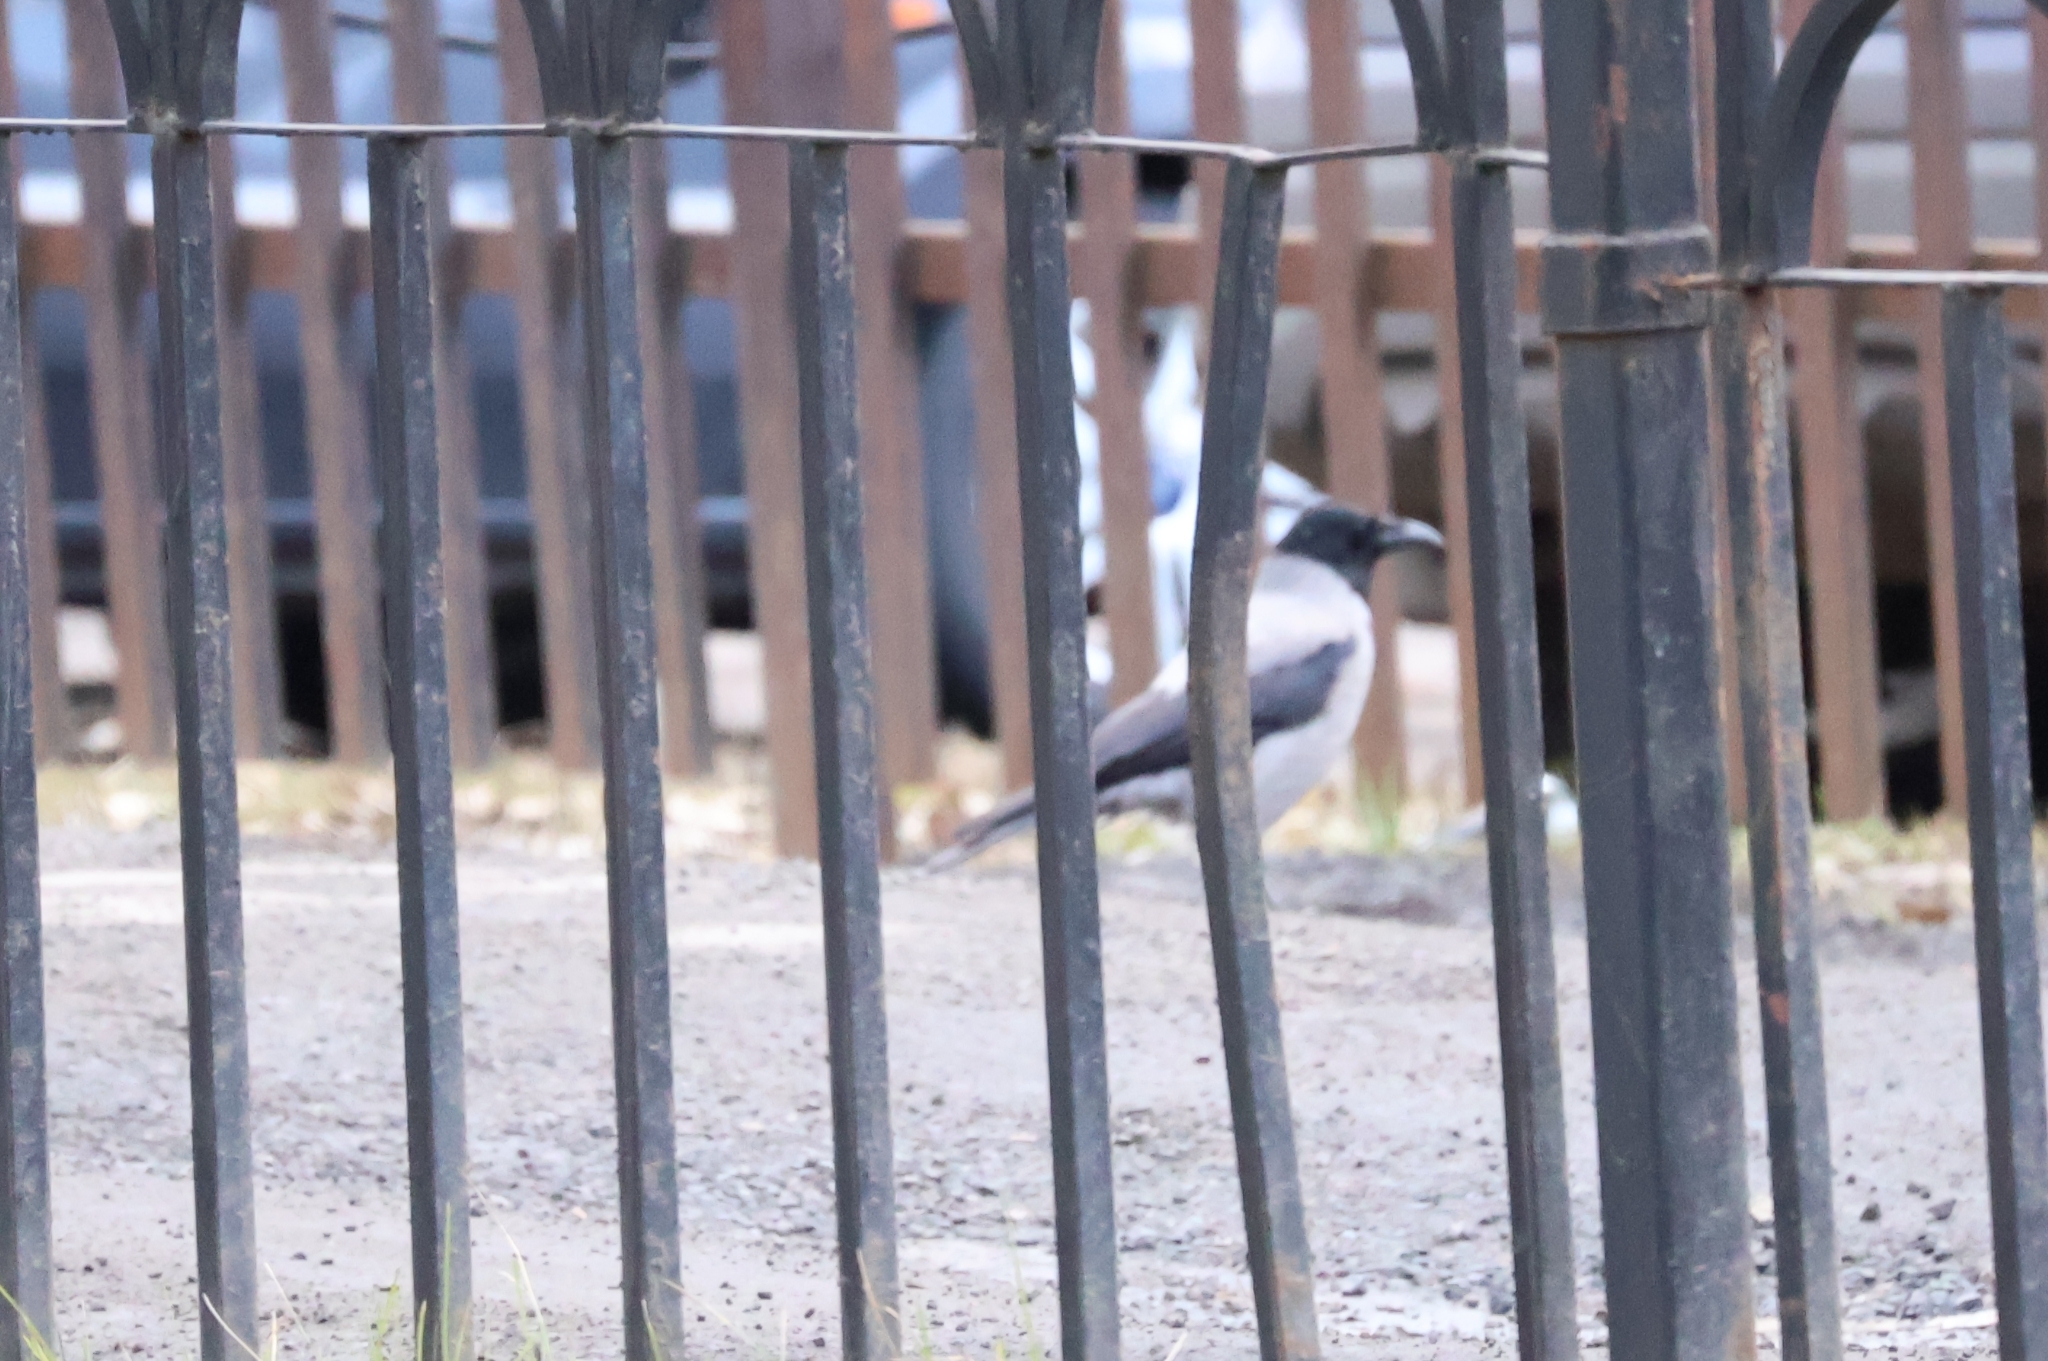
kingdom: Animalia
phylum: Chordata
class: Aves
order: Passeriformes
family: Corvidae
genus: Corvus
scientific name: Corvus cornix
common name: Hooded crow
